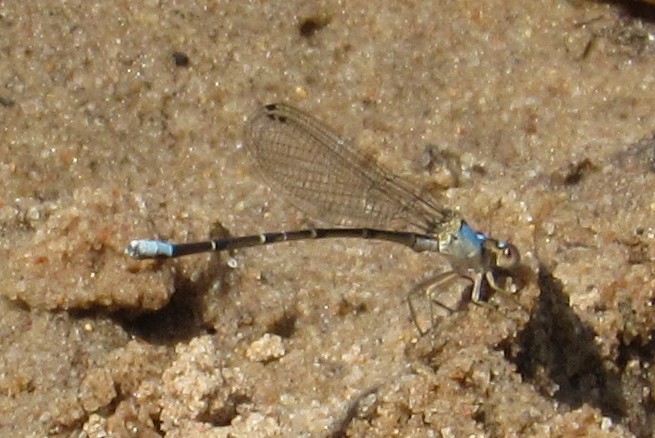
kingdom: Animalia
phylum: Arthropoda
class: Insecta
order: Odonata
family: Coenagrionidae
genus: Argia
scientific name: Argia apicalis
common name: Blue-fronted dancer
